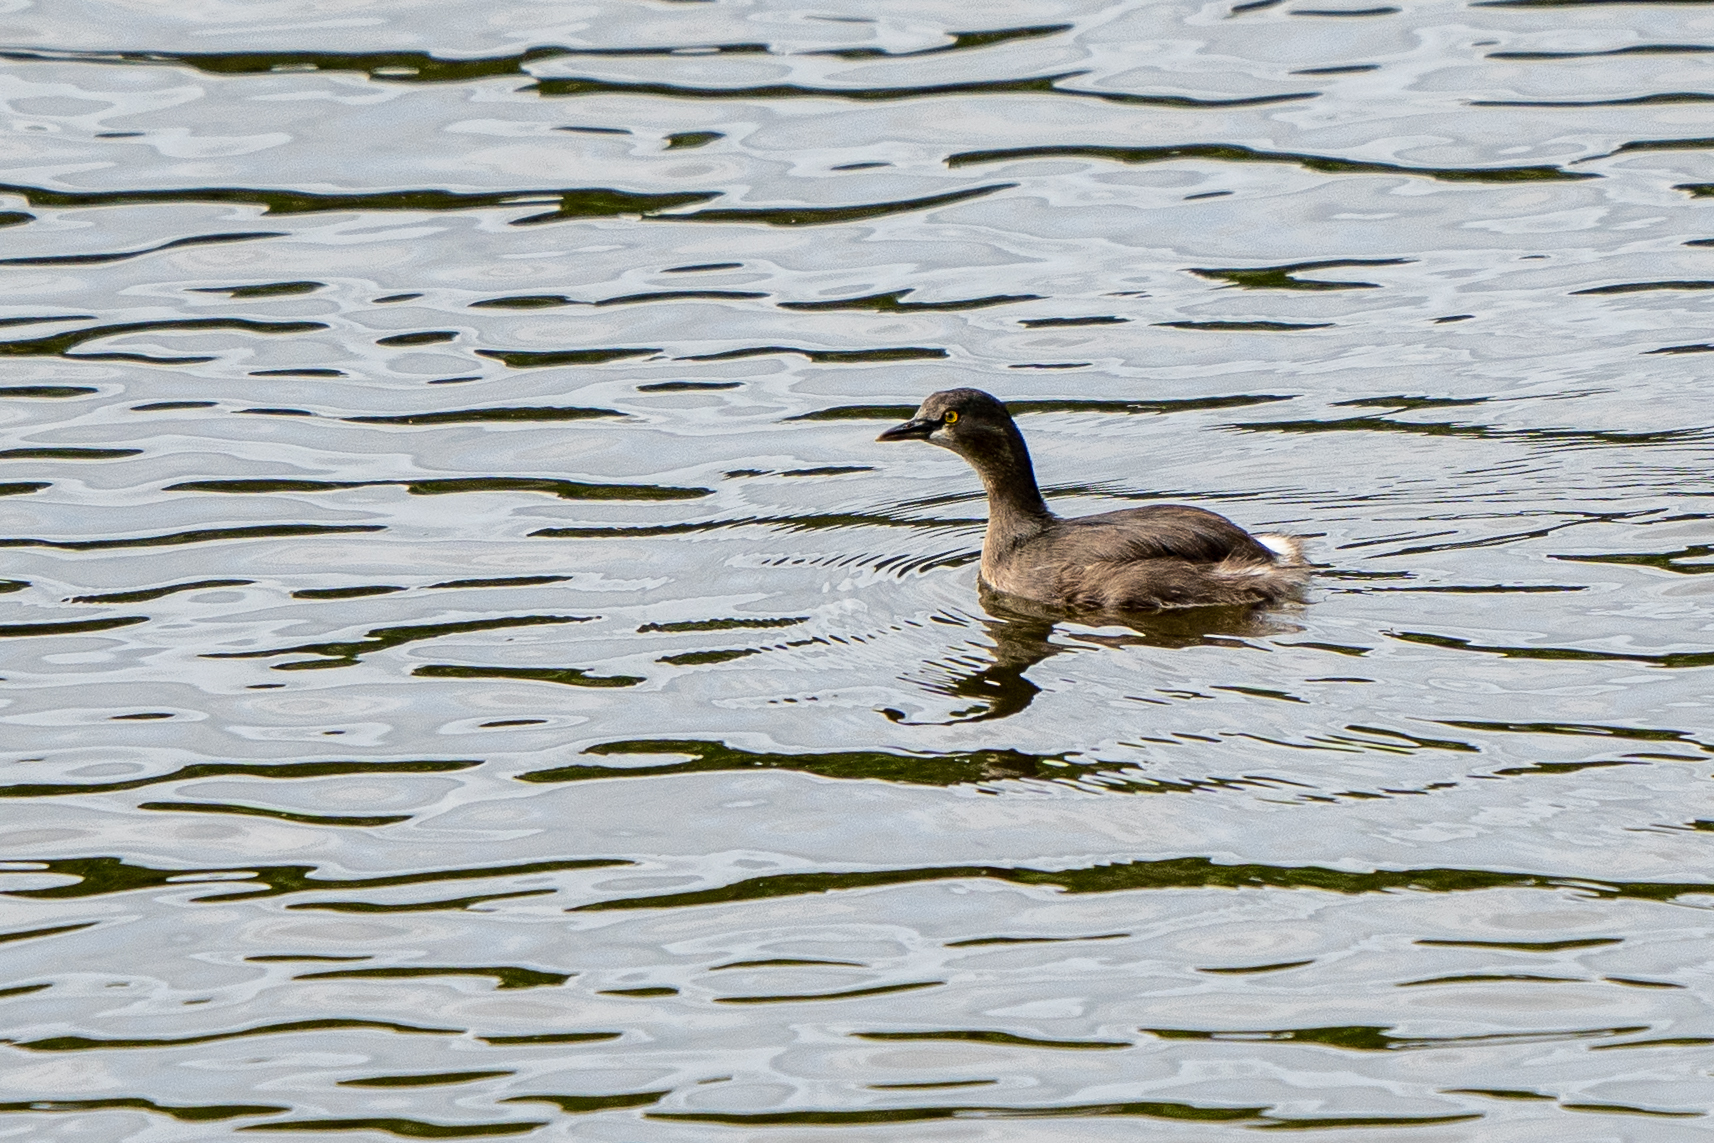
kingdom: Animalia
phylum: Chordata
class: Aves
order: Podicipediformes
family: Podicipedidae
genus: Tachybaptus
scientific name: Tachybaptus dominicus
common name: Least grebe
